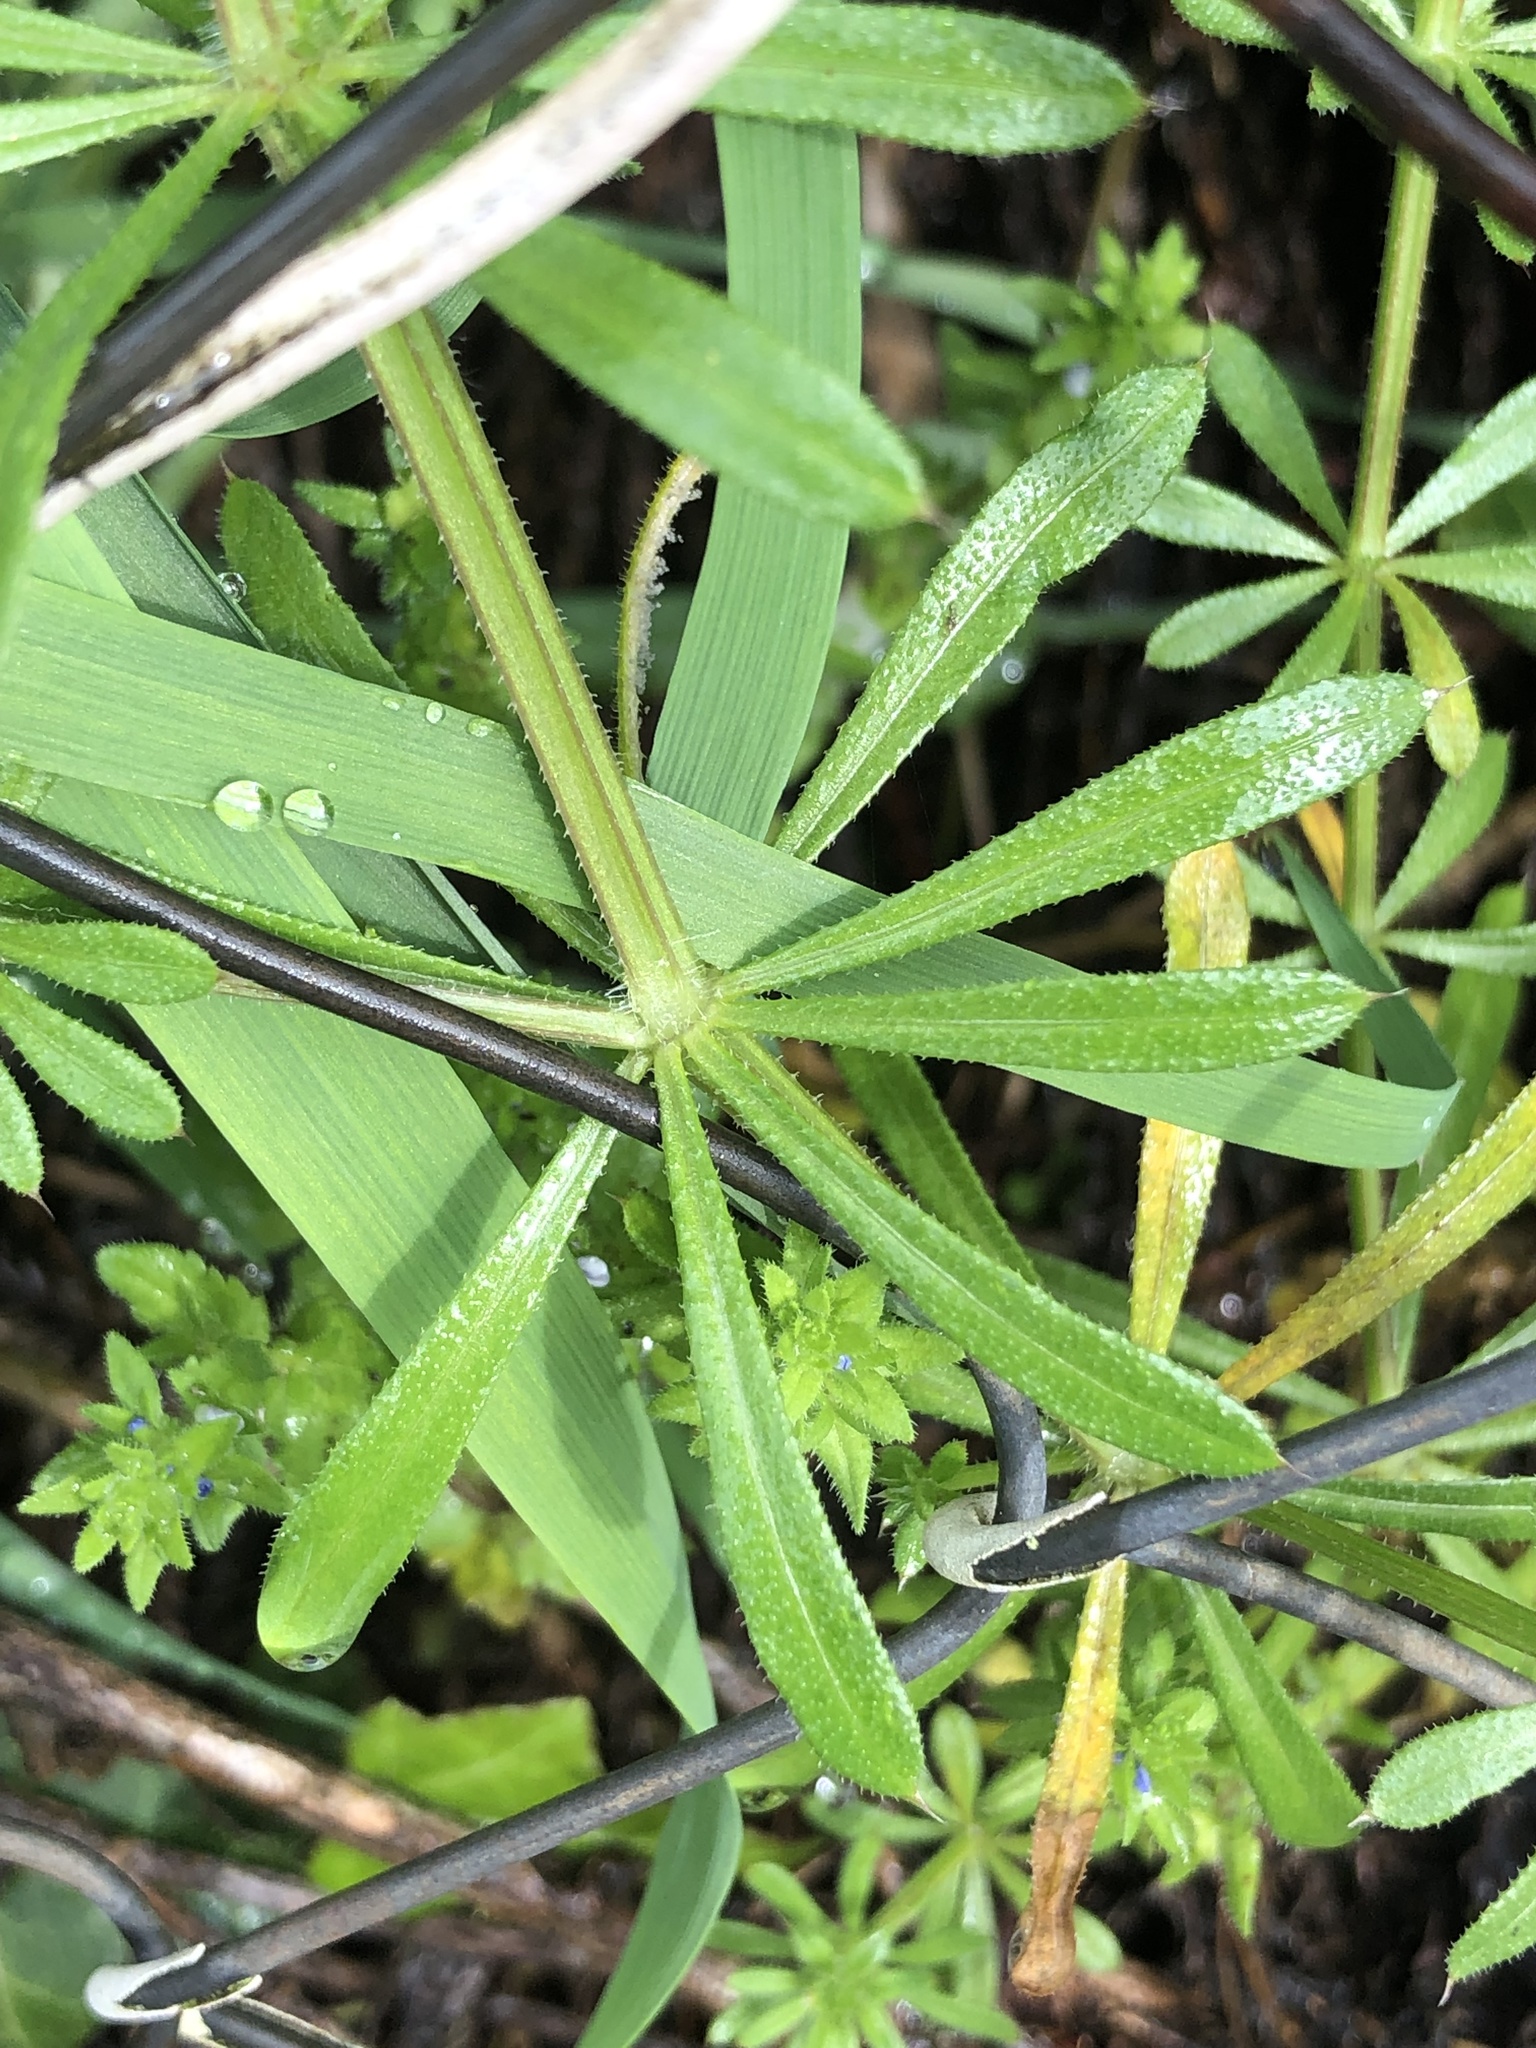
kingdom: Plantae
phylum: Tracheophyta
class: Magnoliopsida
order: Gentianales
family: Rubiaceae
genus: Galium
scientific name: Galium aparine
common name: Cleavers
